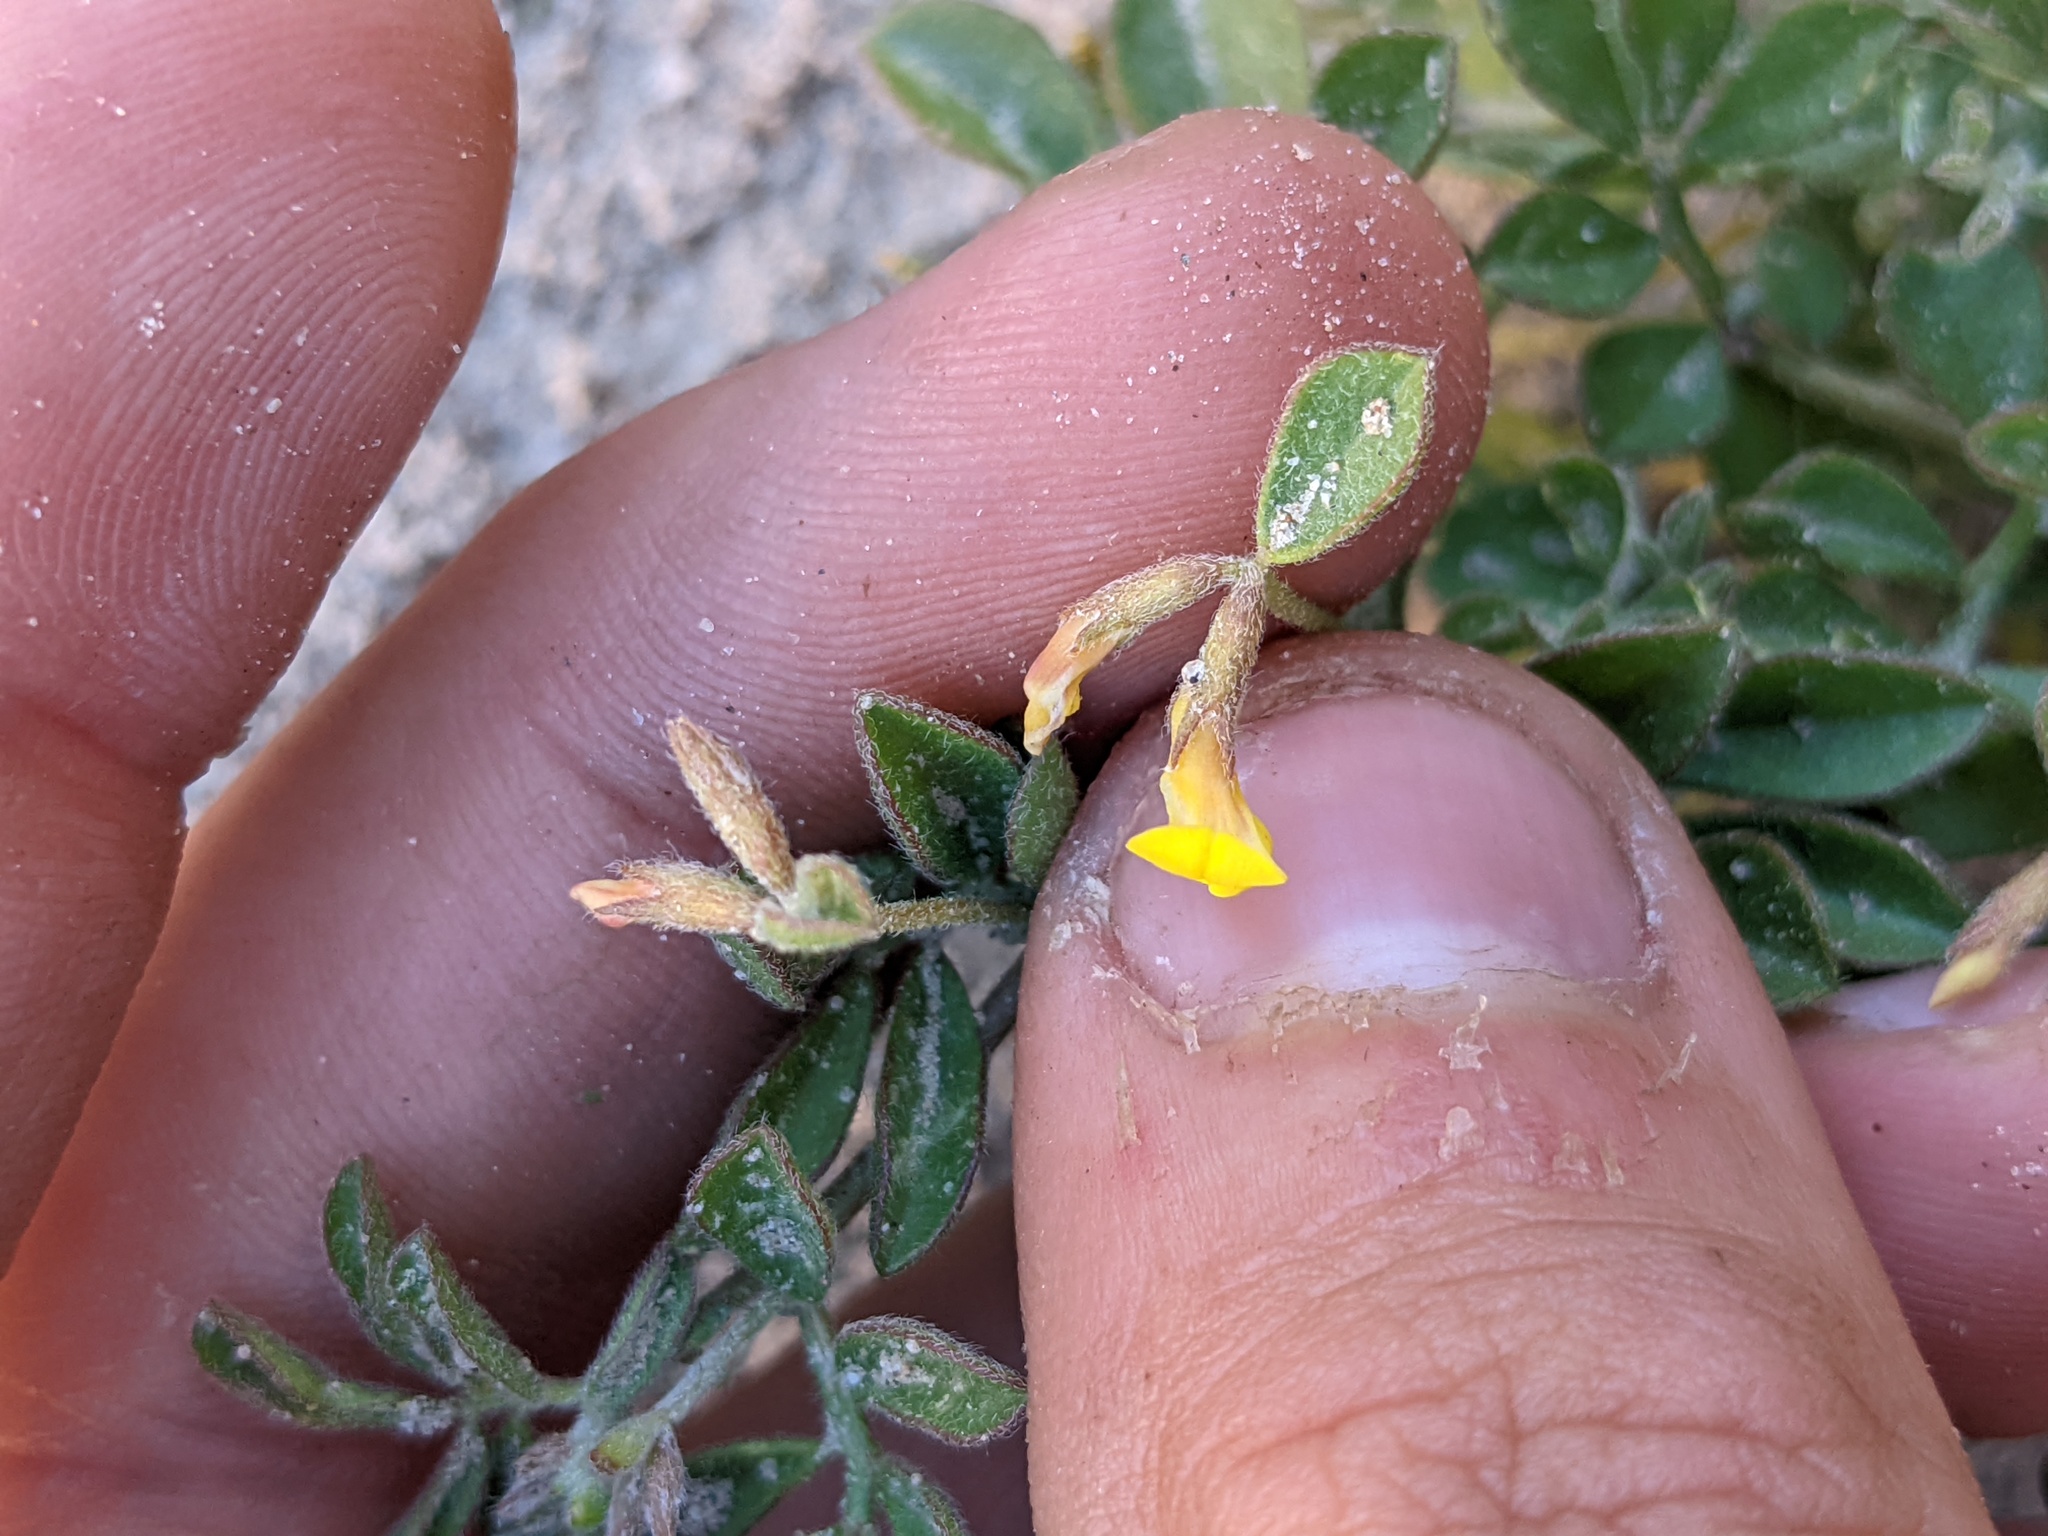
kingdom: Plantae
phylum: Tracheophyta
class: Magnoliopsida
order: Fabales
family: Fabaceae
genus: Acmispon
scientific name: Acmispon strigosus
